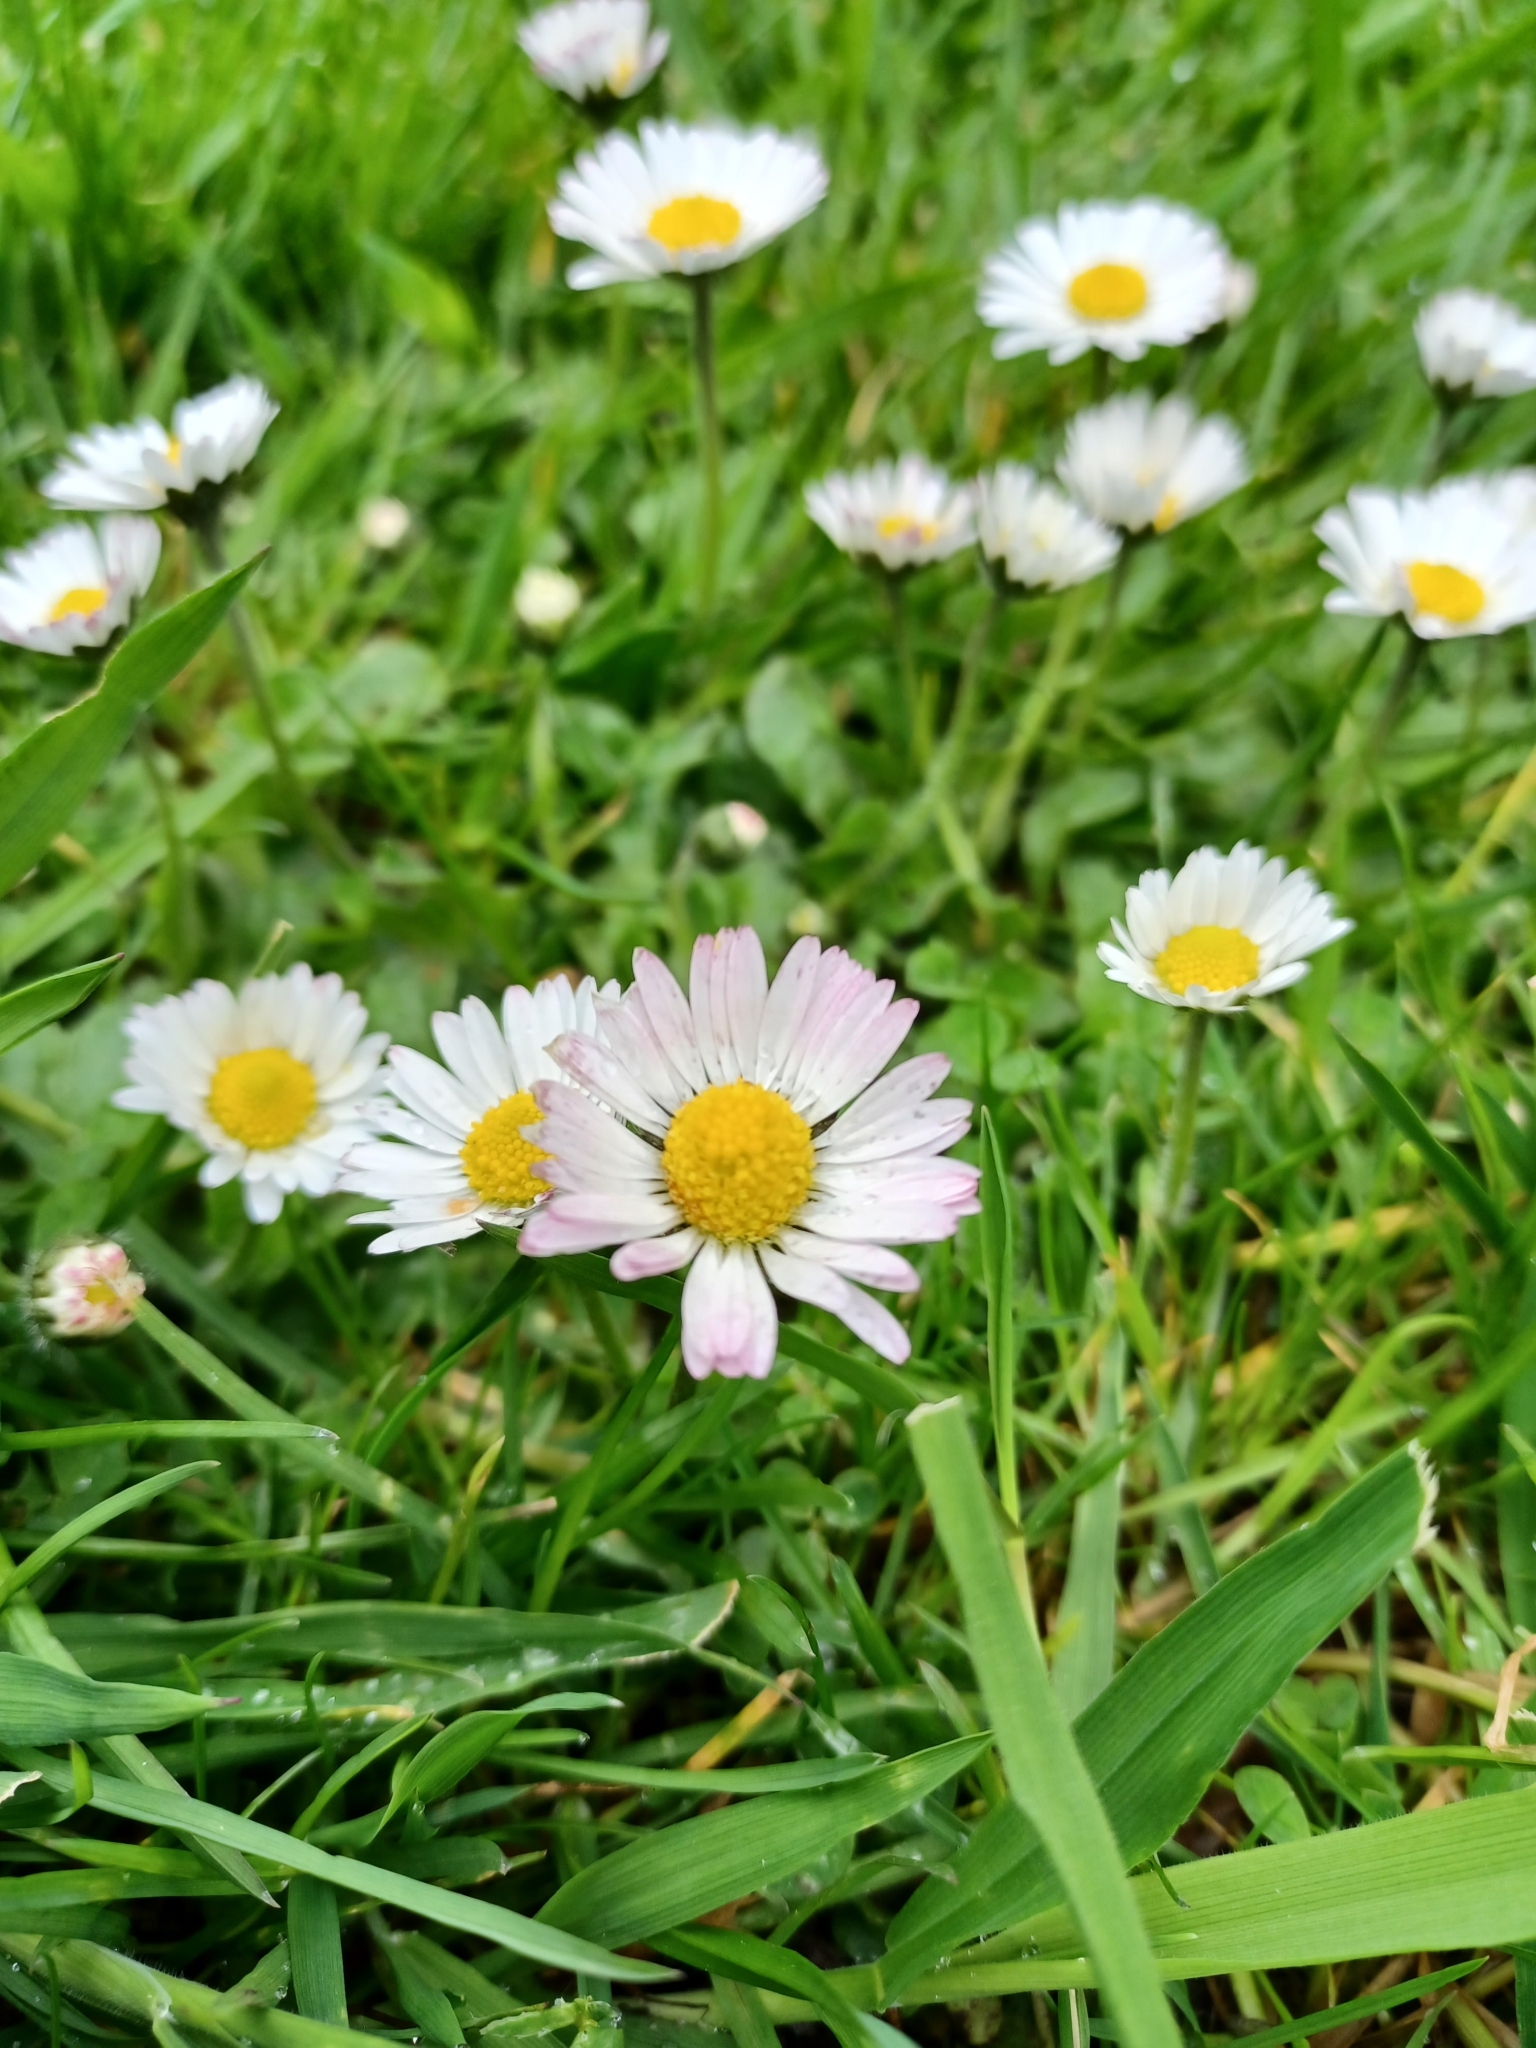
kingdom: Plantae
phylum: Tracheophyta
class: Magnoliopsida
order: Asterales
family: Asteraceae
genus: Bellis
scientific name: Bellis perennis
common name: Lawndaisy
